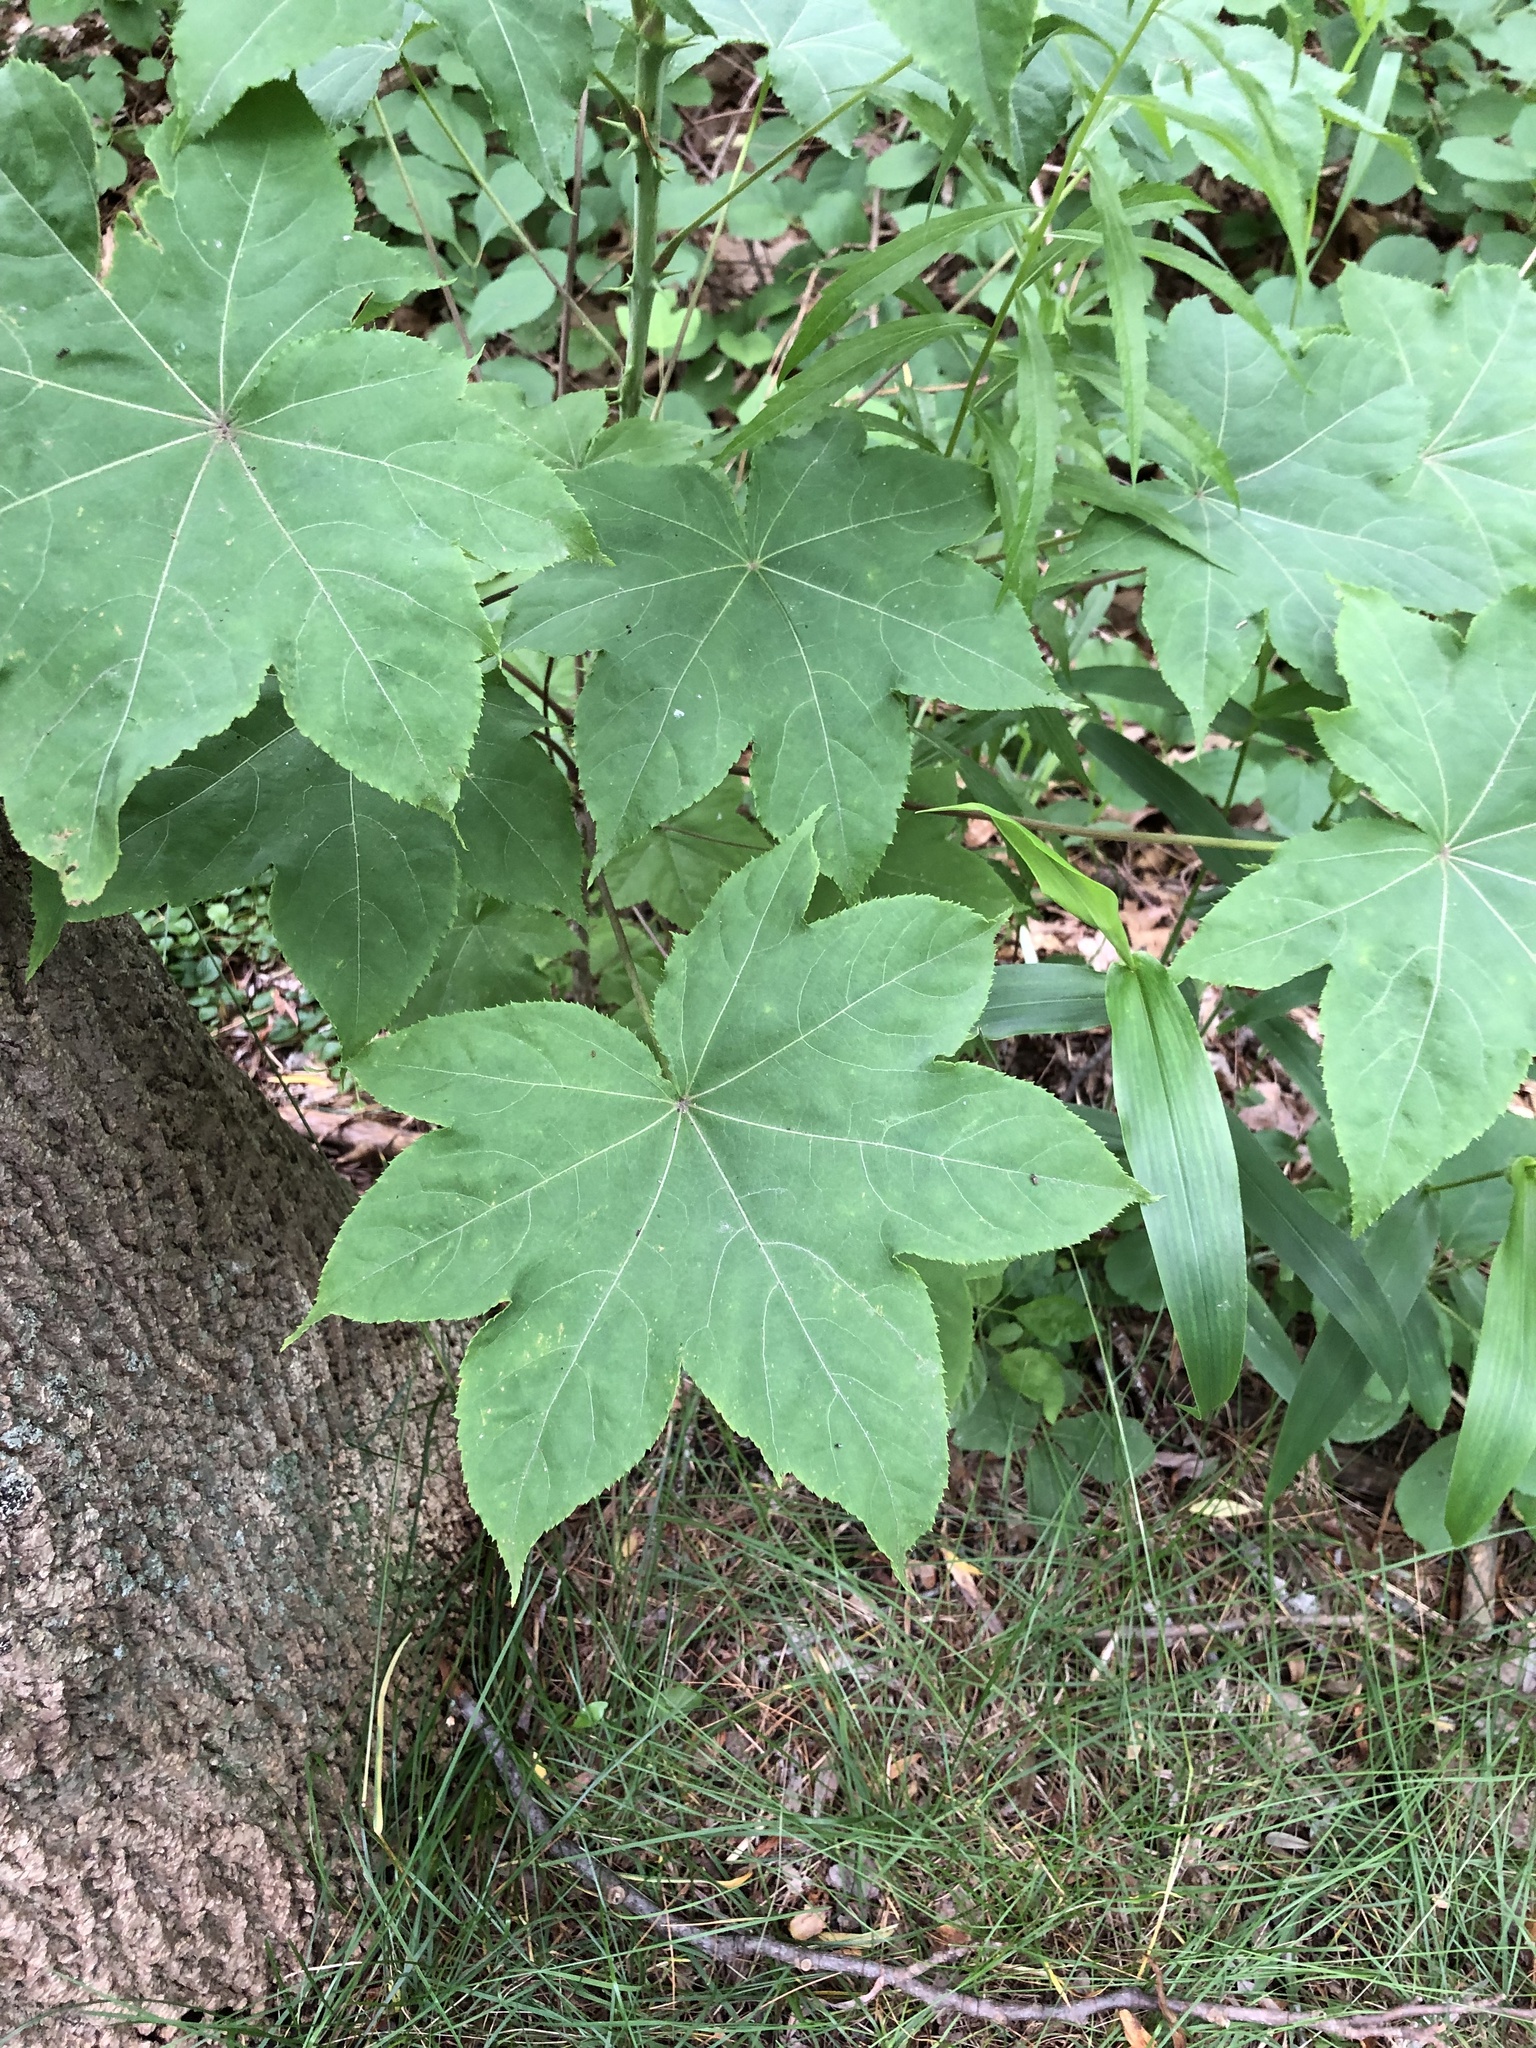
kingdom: Plantae
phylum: Tracheophyta
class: Magnoliopsida
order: Apiales
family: Araliaceae
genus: Kalopanax
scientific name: Kalopanax septemlobus
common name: Castor aralia
